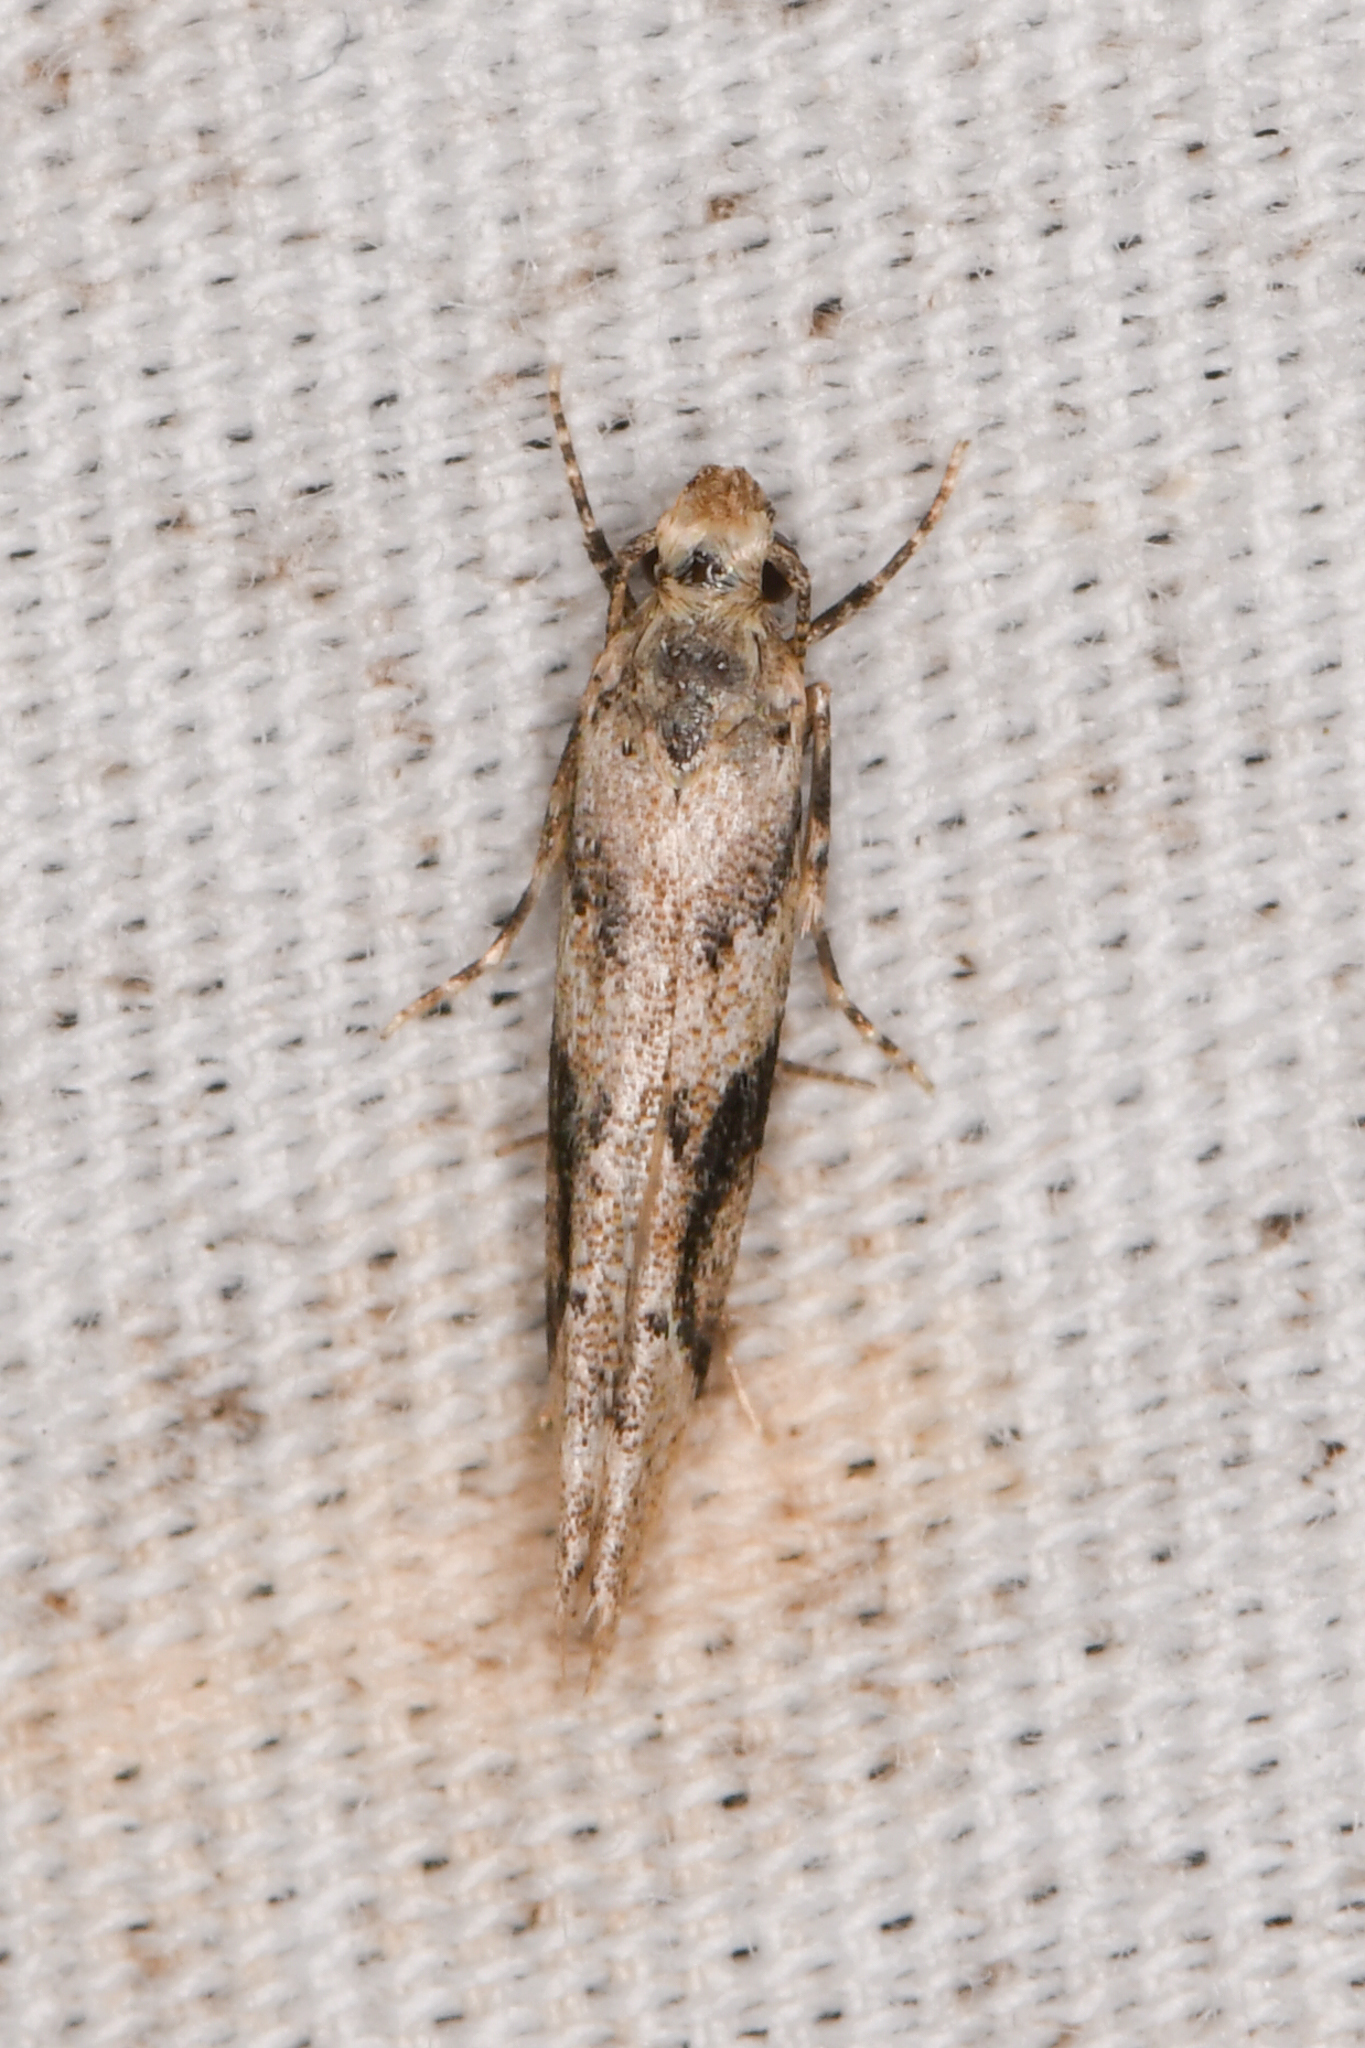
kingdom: Animalia
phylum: Arthropoda
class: Insecta
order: Lepidoptera
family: Gelechiidae
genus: Coleotechnites
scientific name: Coleotechnites atrupictella
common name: Spruce micromoth
